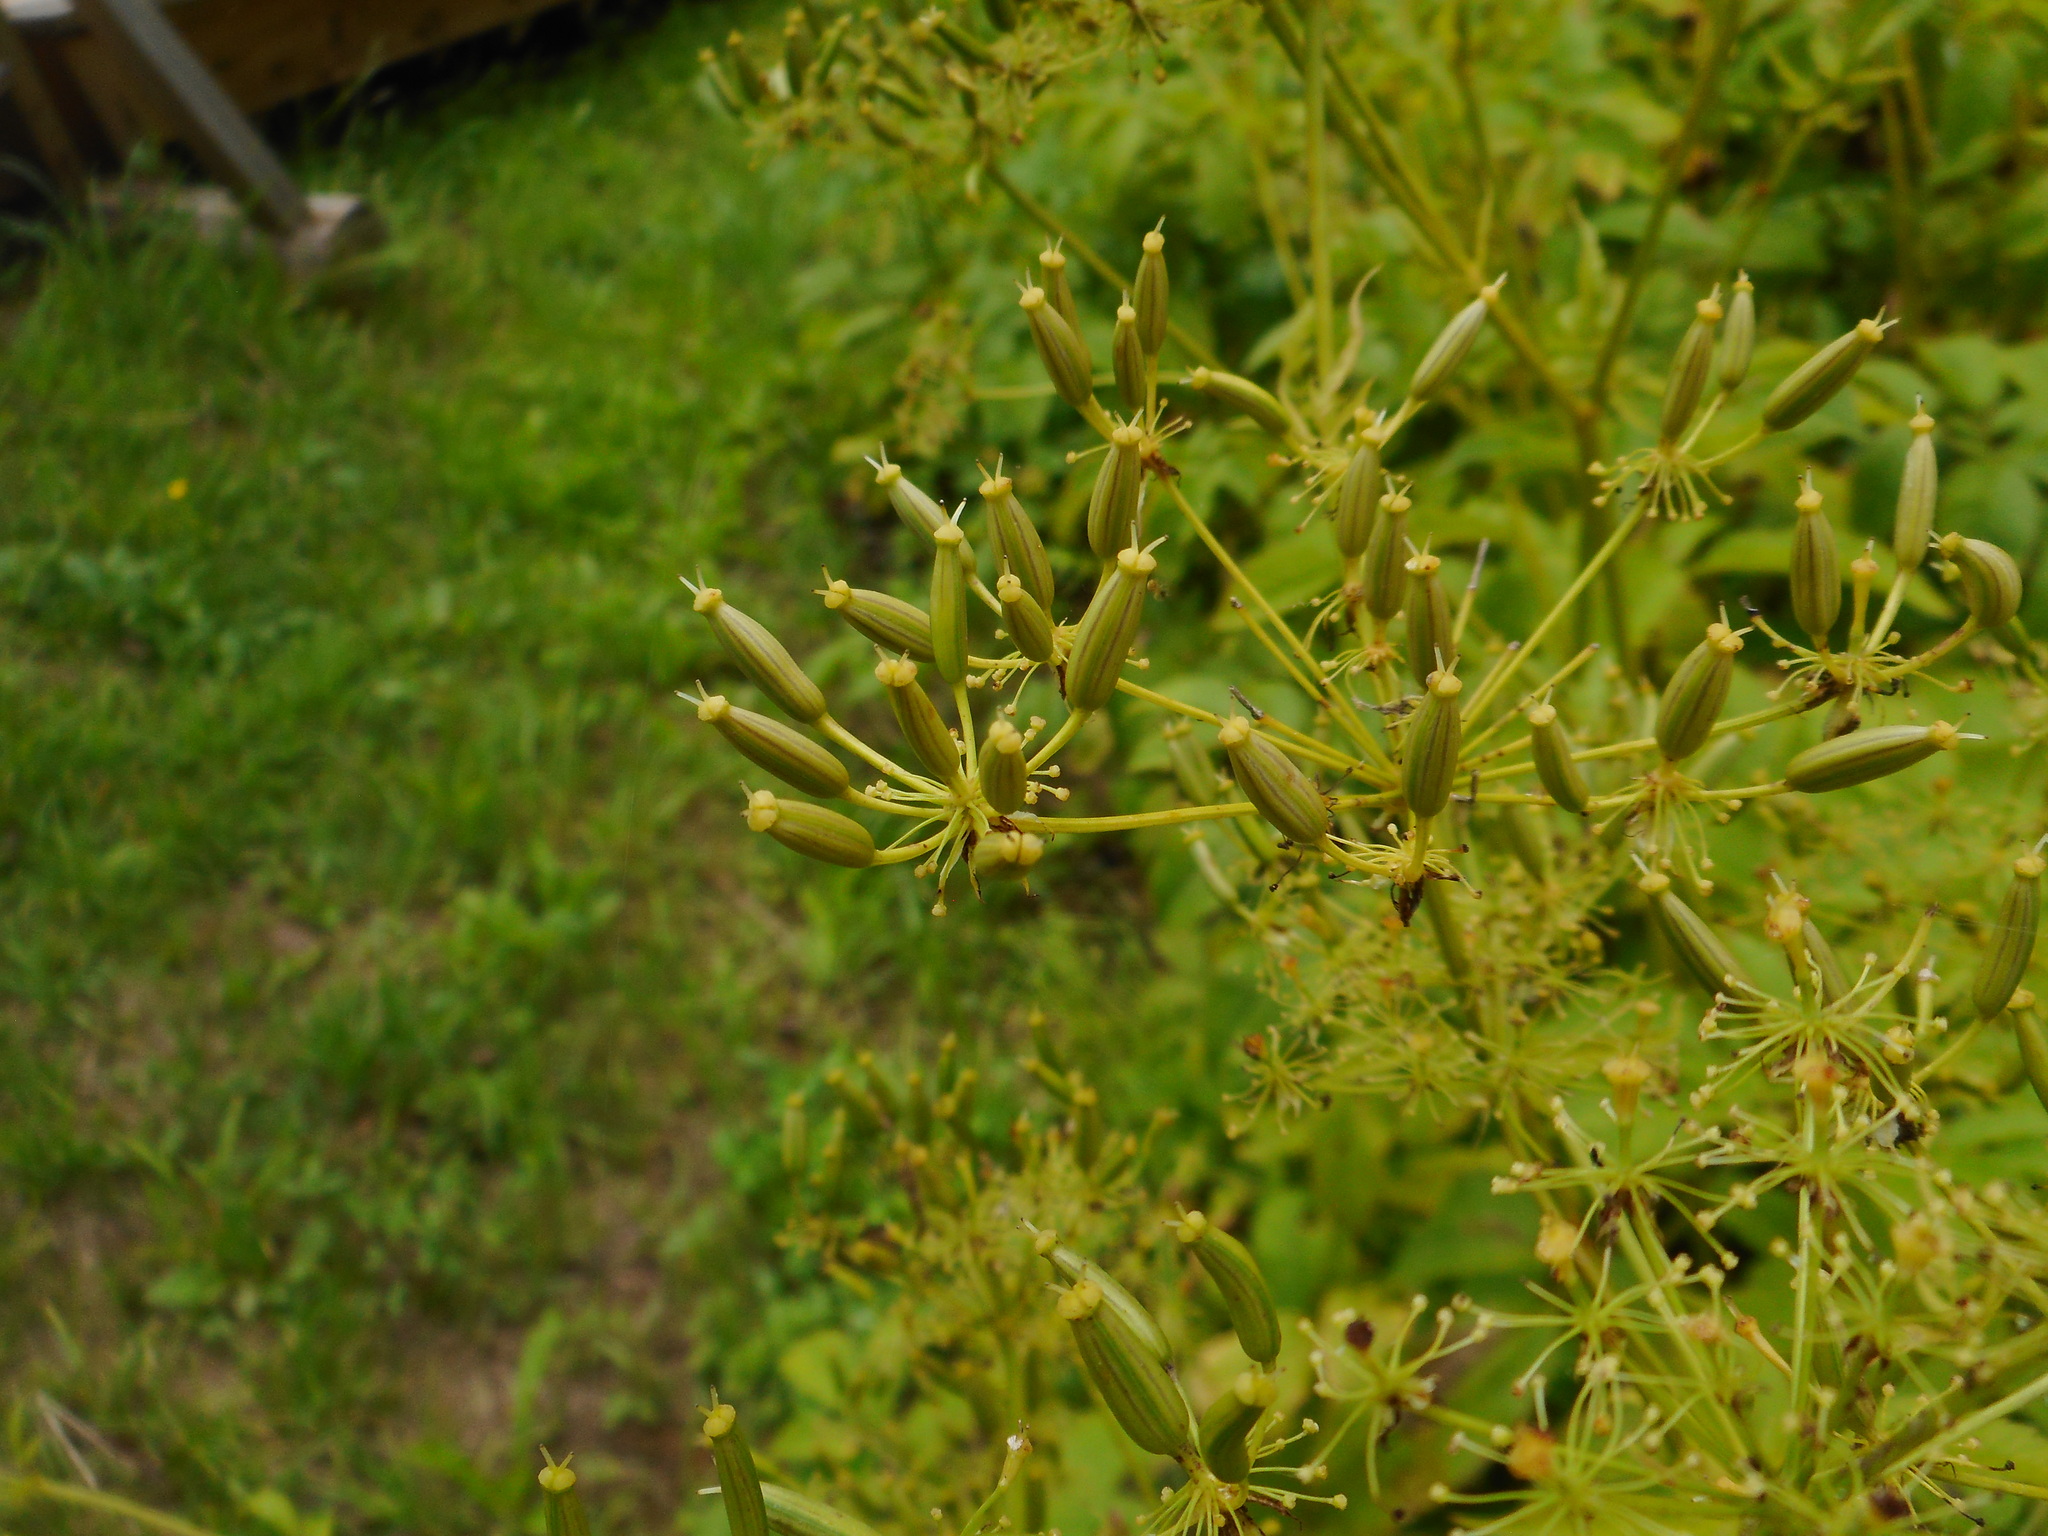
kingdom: Plantae
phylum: Tracheophyta
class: Magnoliopsida
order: Apiales
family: Apiaceae
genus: Chaerophyllum
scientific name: Chaerophyllum aromaticum
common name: Broadleaf chervil
